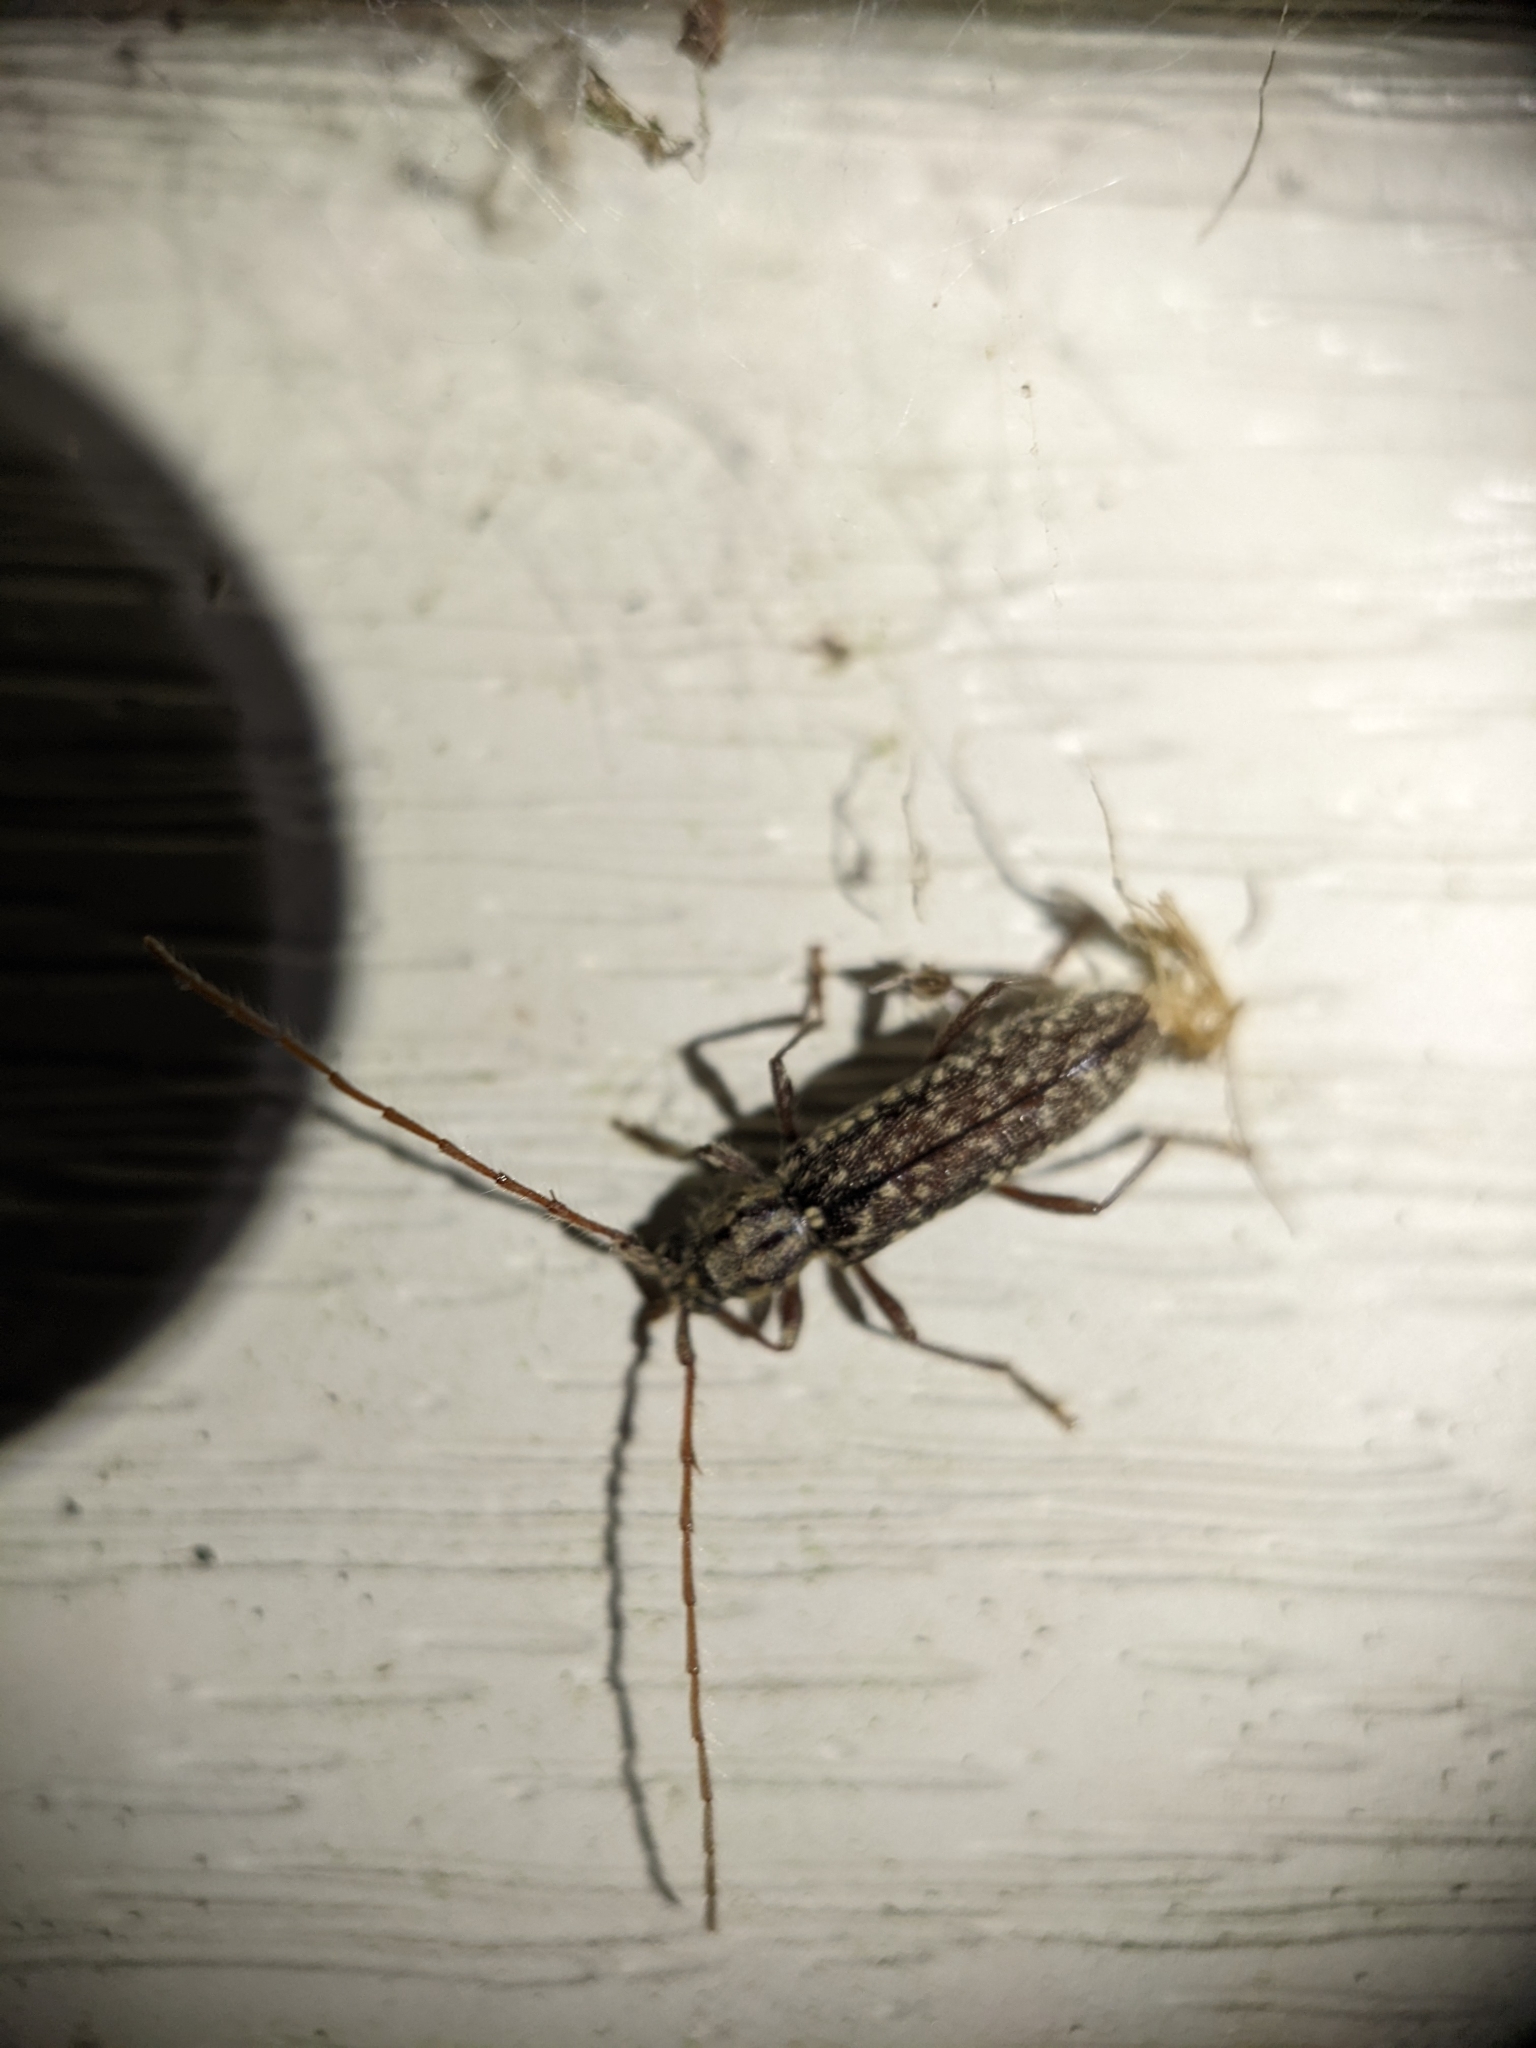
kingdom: Animalia
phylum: Arthropoda
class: Insecta
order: Coleoptera
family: Cerambycidae
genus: Anelaphus
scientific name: Anelaphus pumilus
